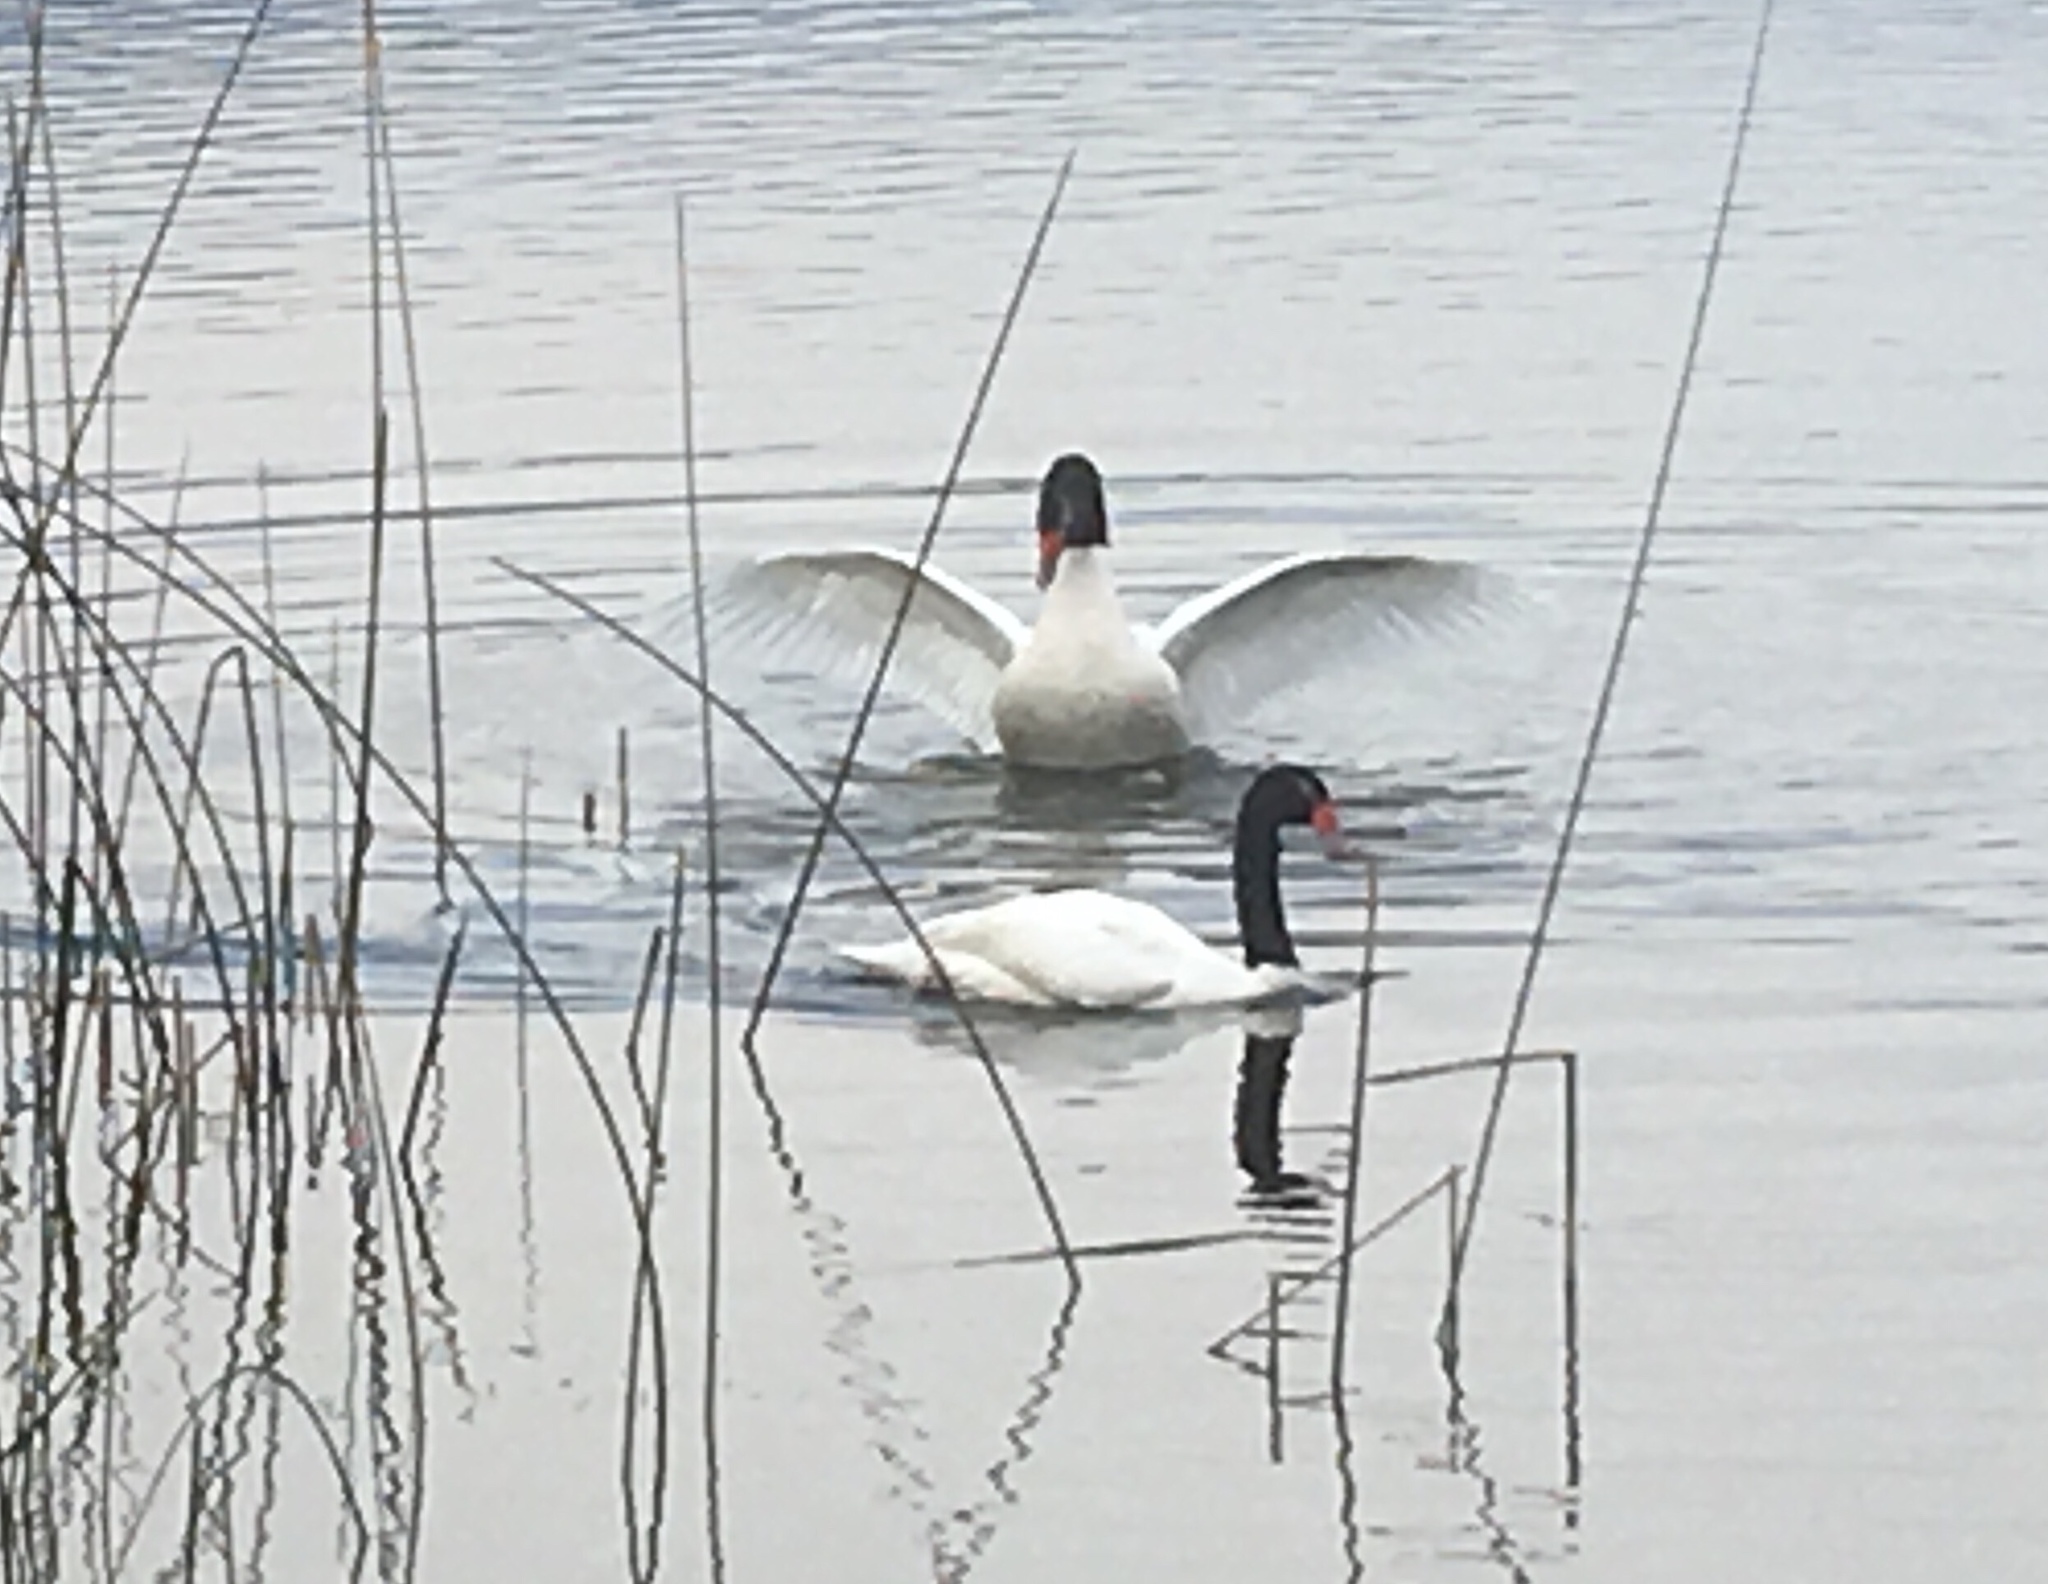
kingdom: Animalia
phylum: Chordata
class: Aves
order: Anseriformes
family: Anatidae
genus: Cygnus
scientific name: Cygnus melancoryphus
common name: Black-necked swan
